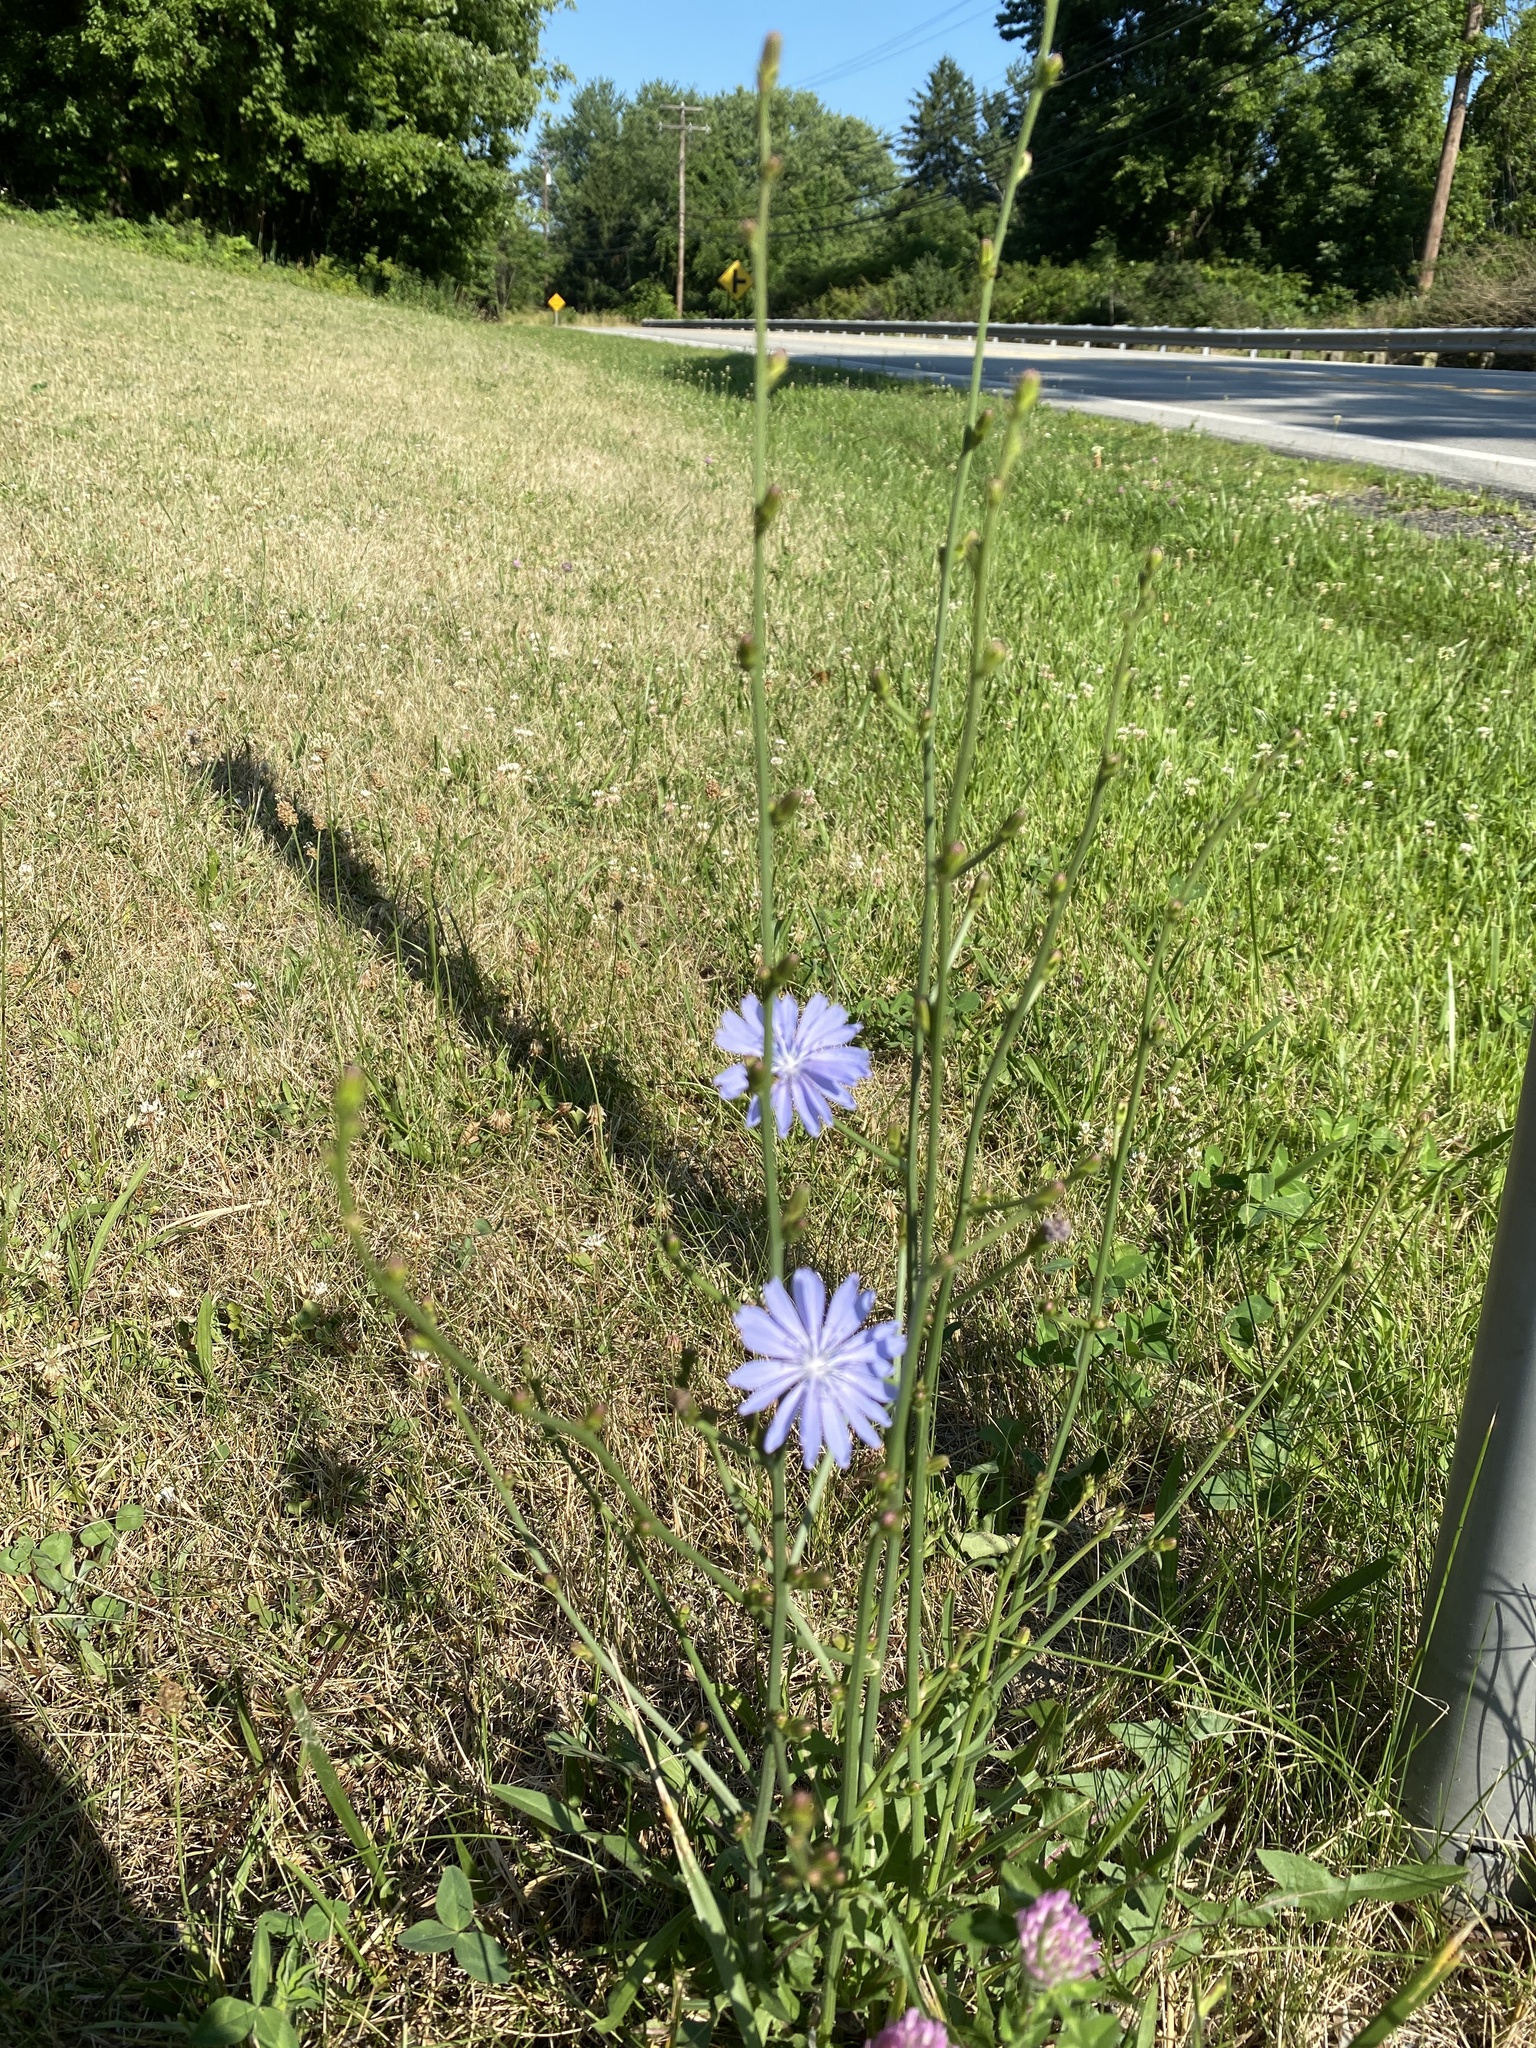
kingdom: Plantae
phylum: Tracheophyta
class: Magnoliopsida
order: Asterales
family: Asteraceae
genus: Cichorium
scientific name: Cichorium intybus
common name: Chicory
